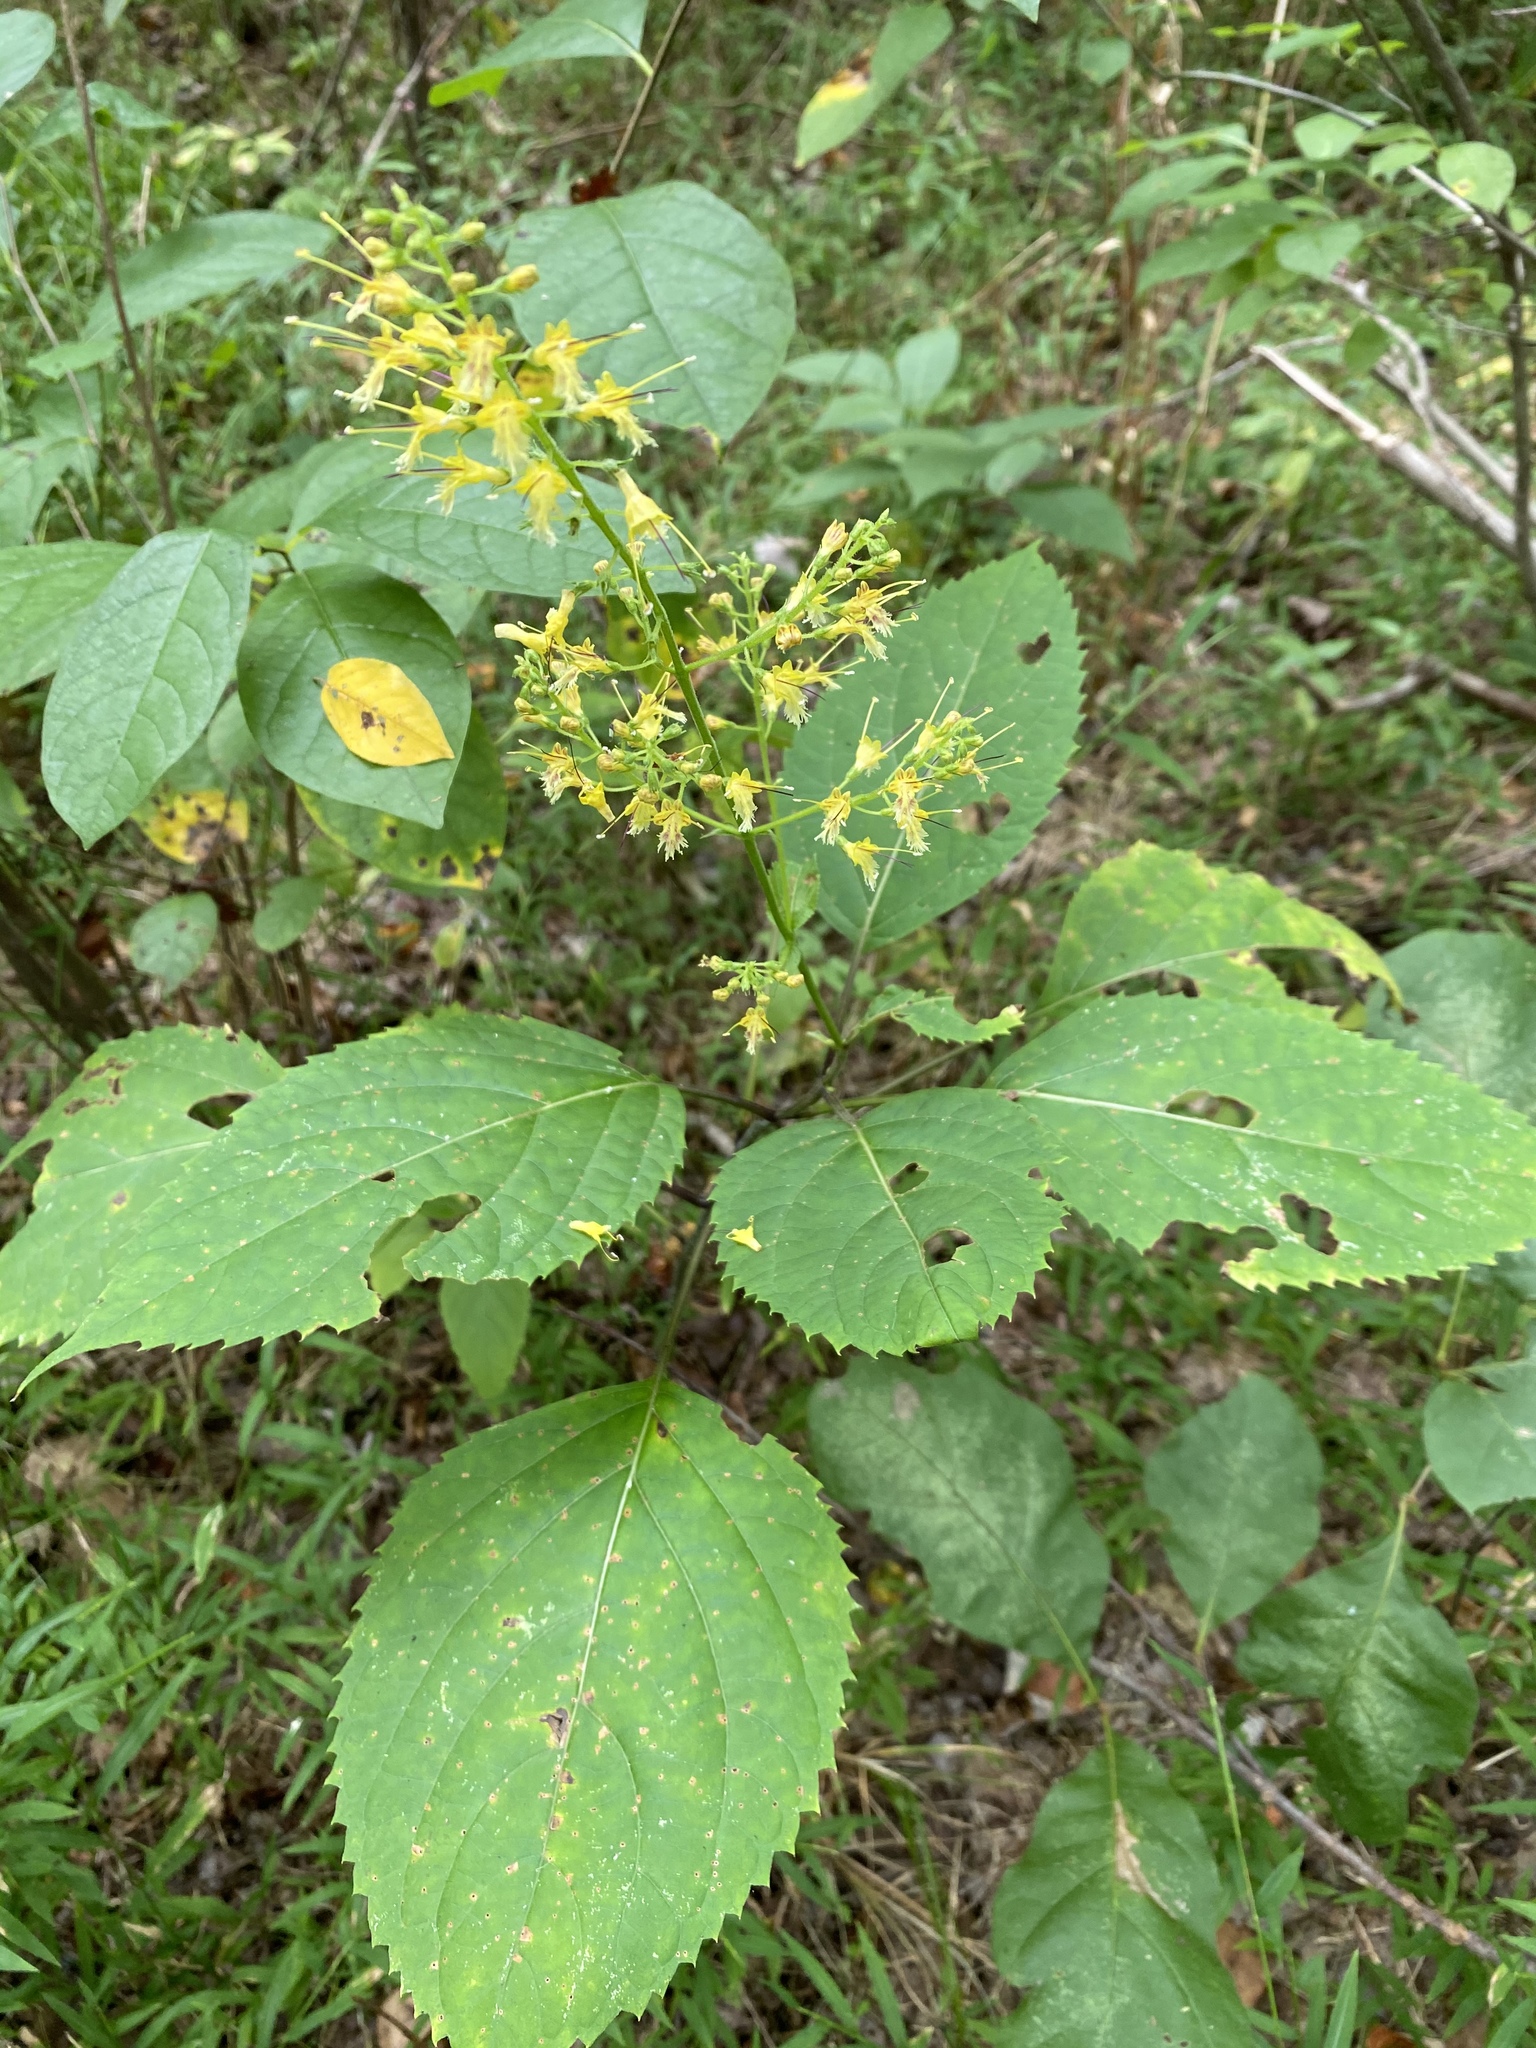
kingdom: Plantae
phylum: Tracheophyta
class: Magnoliopsida
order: Lamiales
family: Lamiaceae
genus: Collinsonia
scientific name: Collinsonia canadensis
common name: Northern horsebalm
